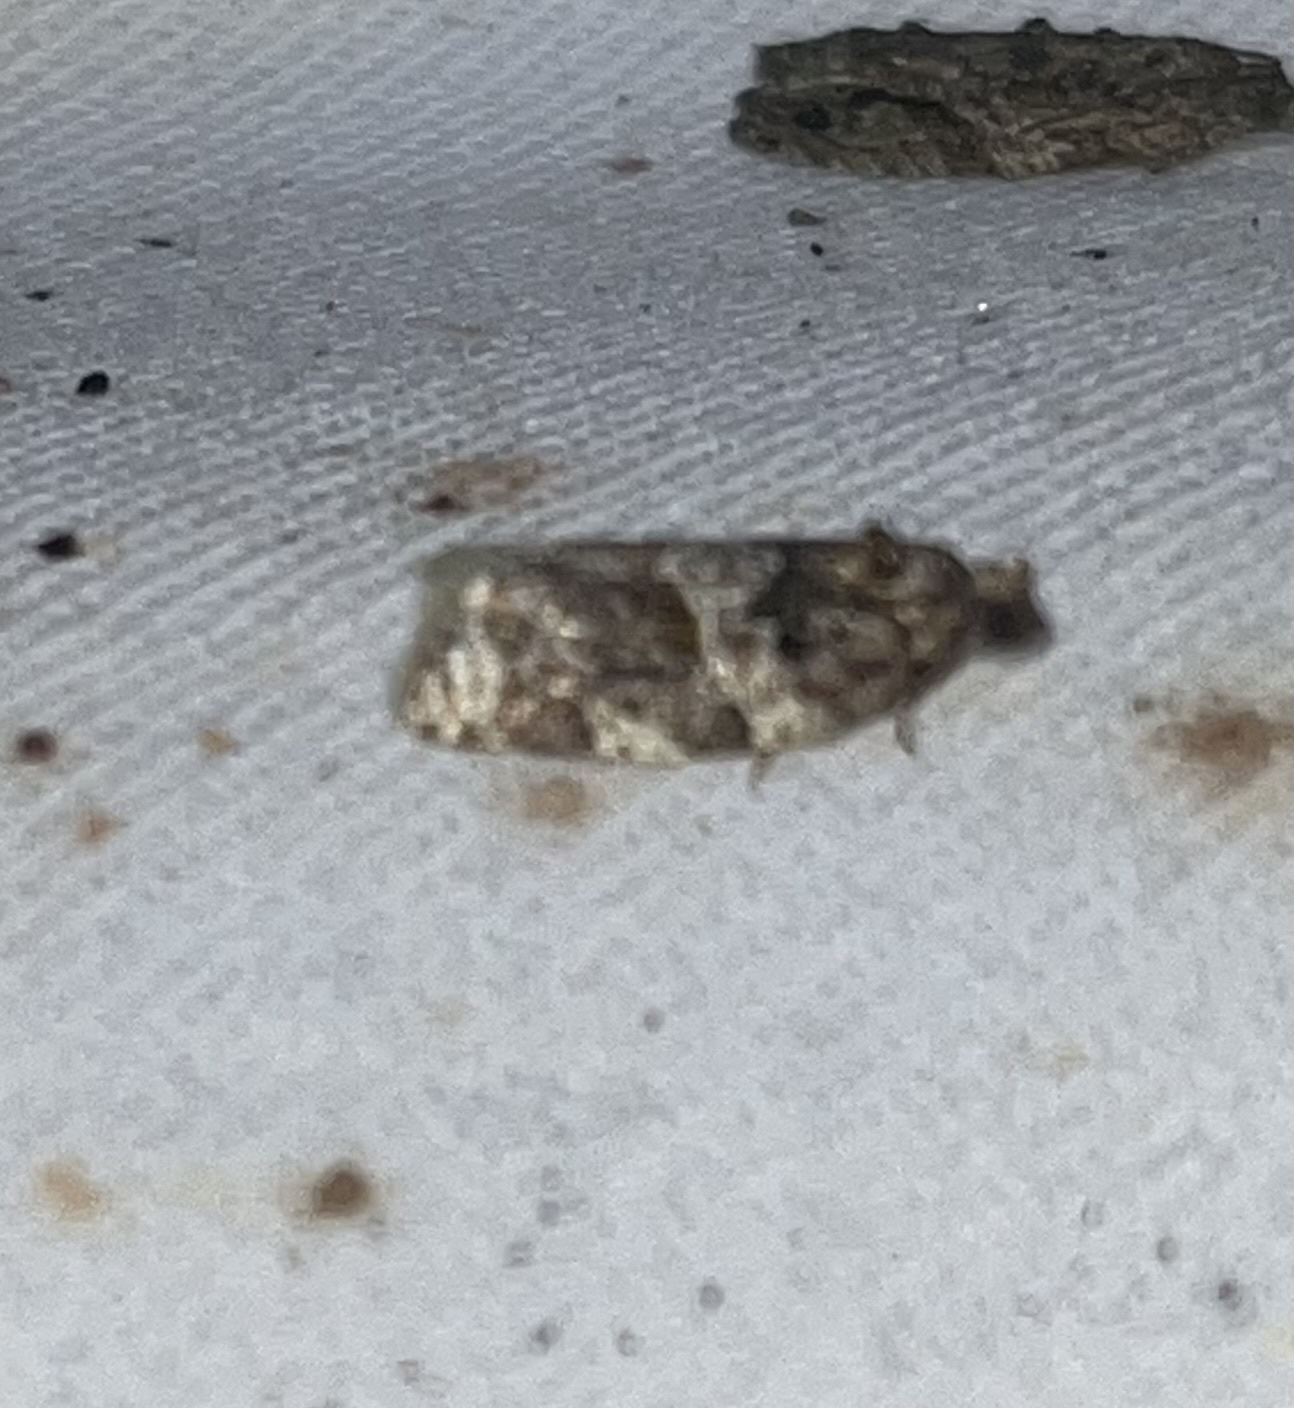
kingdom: Animalia
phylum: Arthropoda
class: Insecta
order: Lepidoptera
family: Tortricidae
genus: Argyrotaenia
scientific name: Argyrotaenia velutinana
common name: Red-banded leafroller moth
